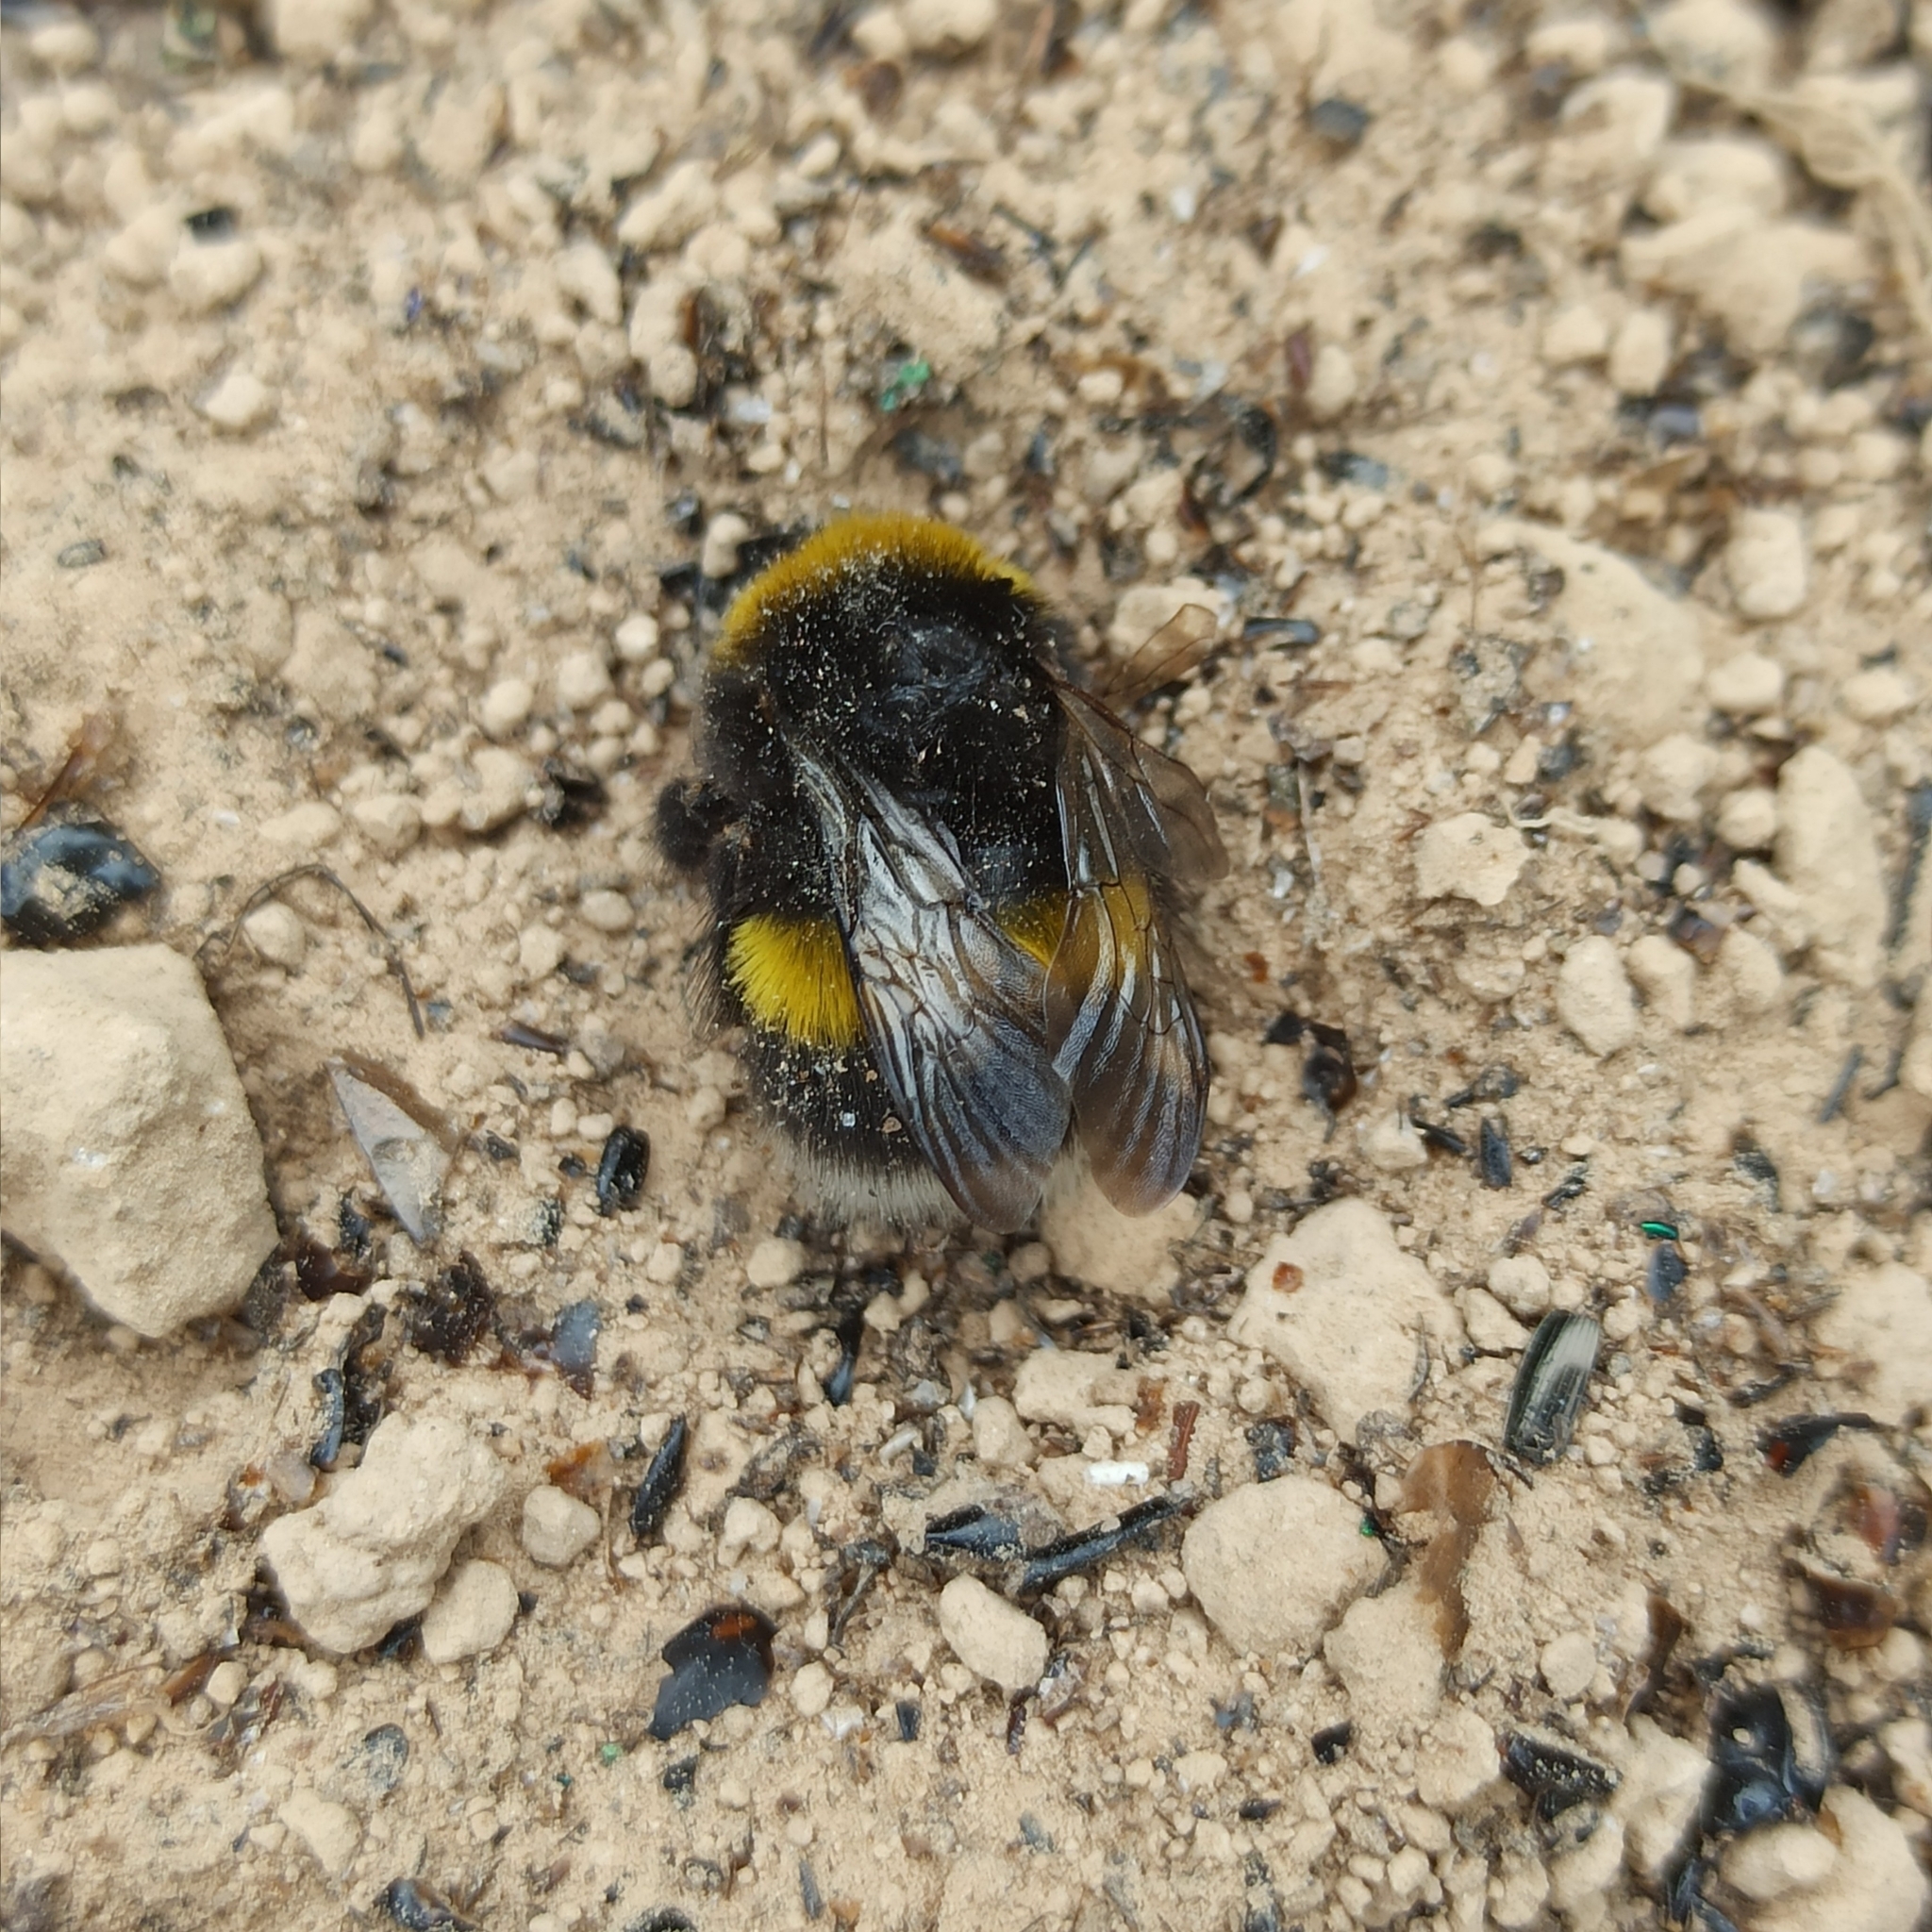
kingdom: Animalia
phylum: Arthropoda
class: Insecta
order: Hymenoptera
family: Apidae
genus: Bombus
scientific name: Bombus
